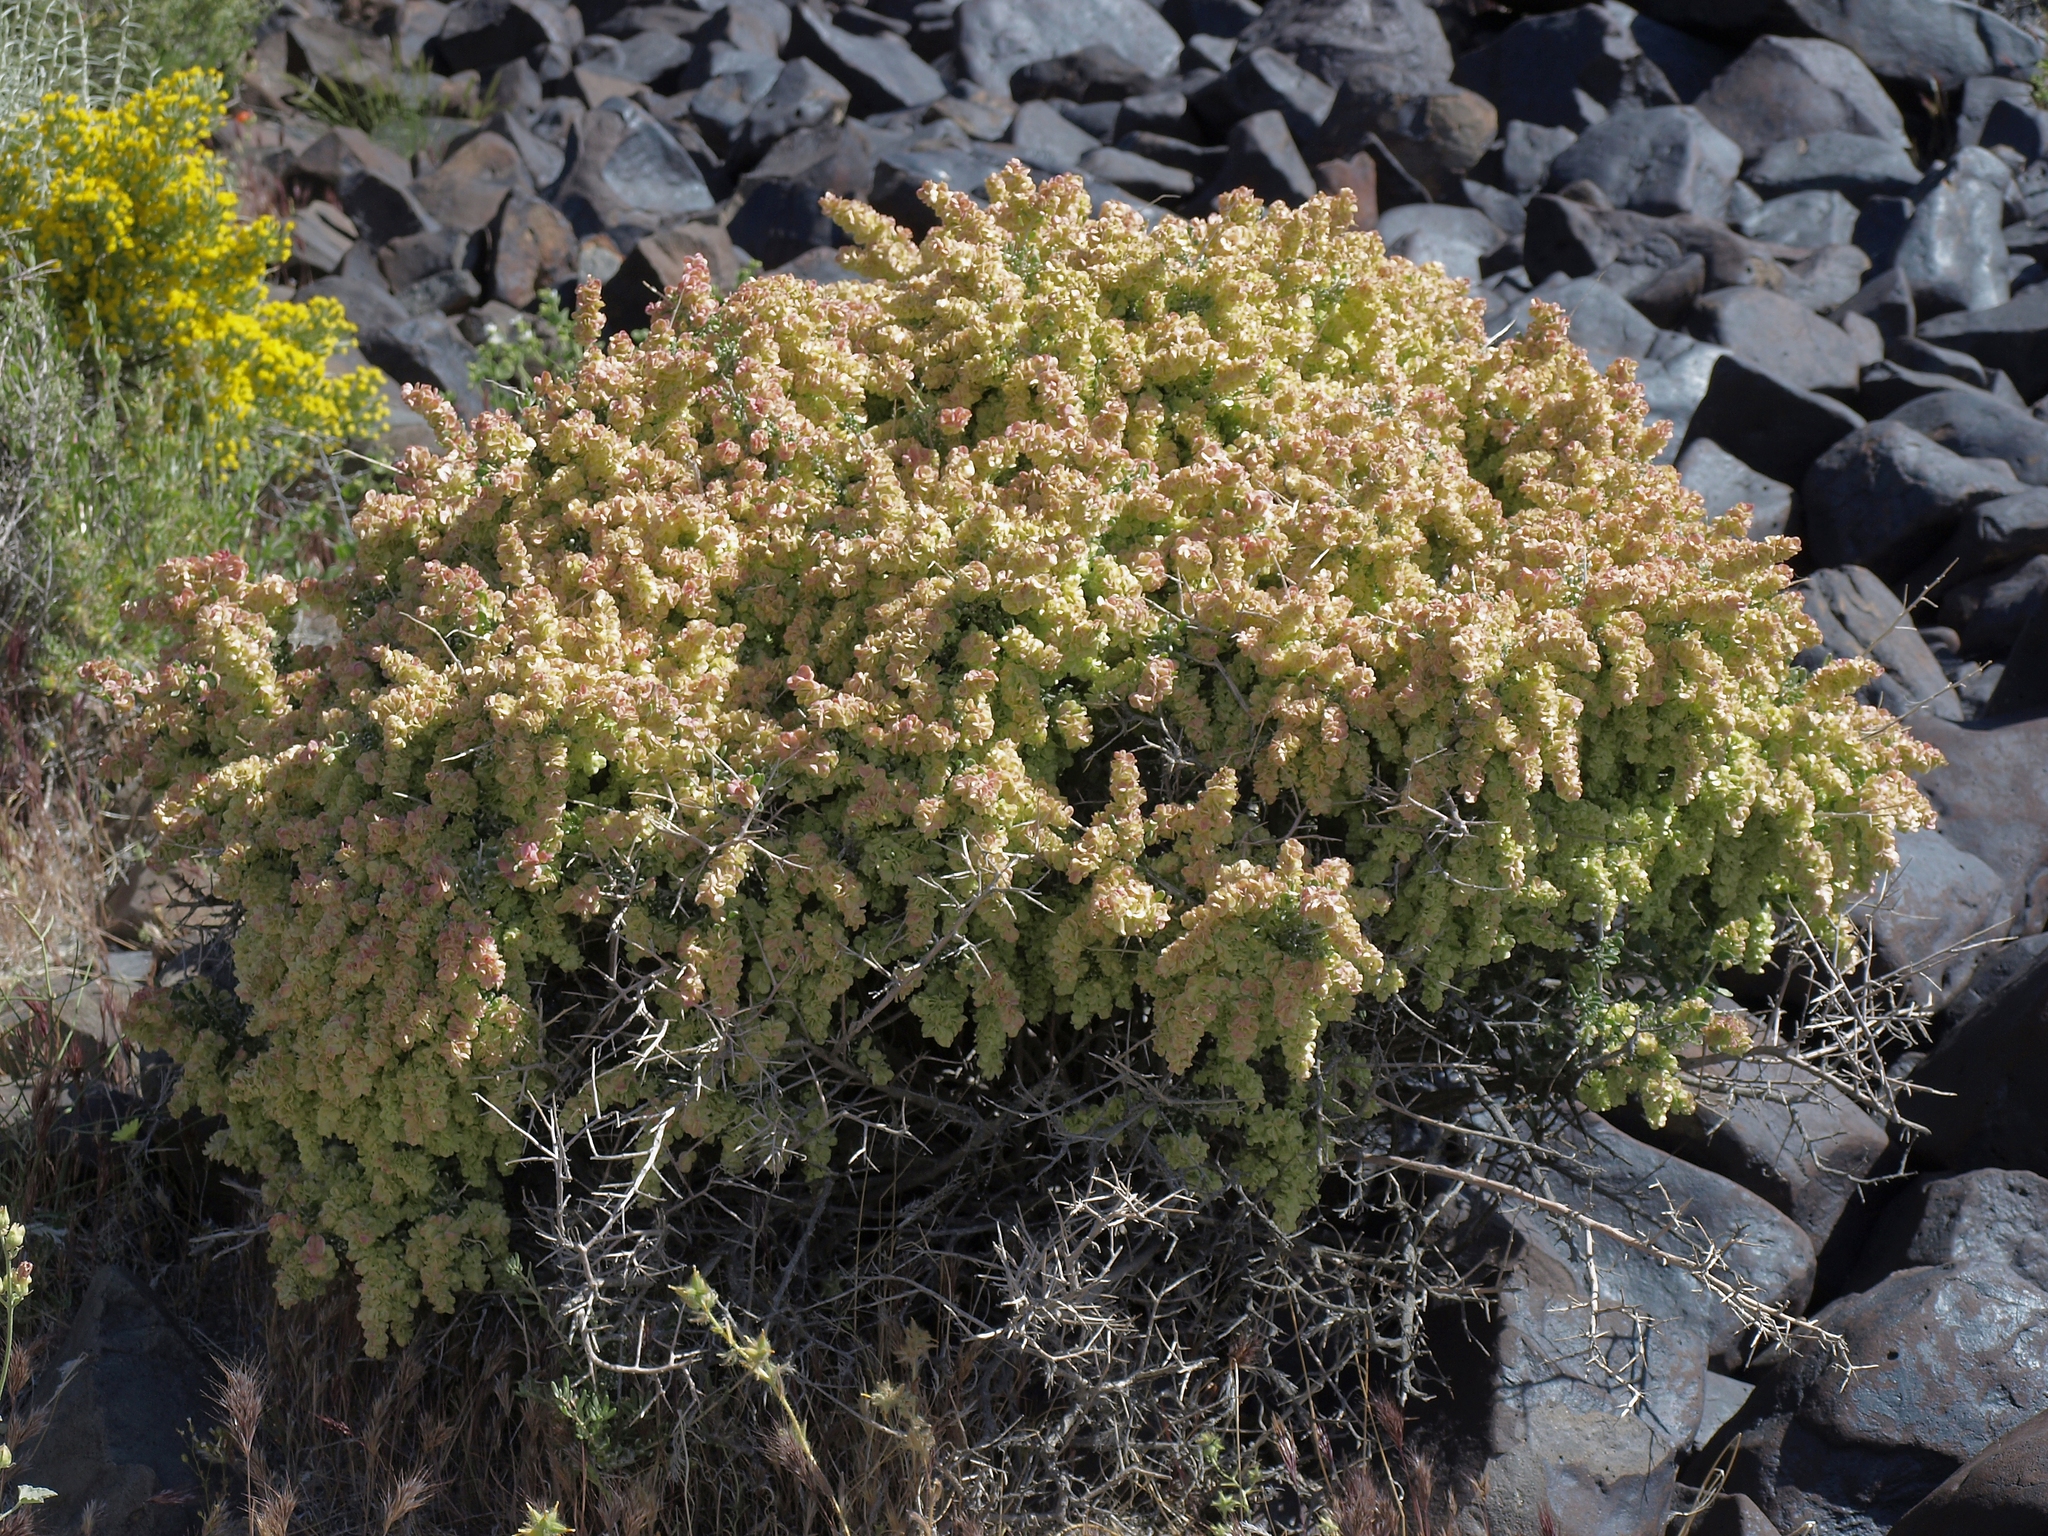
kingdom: Plantae
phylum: Tracheophyta
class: Magnoliopsida
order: Caryophyllales
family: Amaranthaceae
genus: Grayia
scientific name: Grayia spinosa
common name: Spiny hopsage
